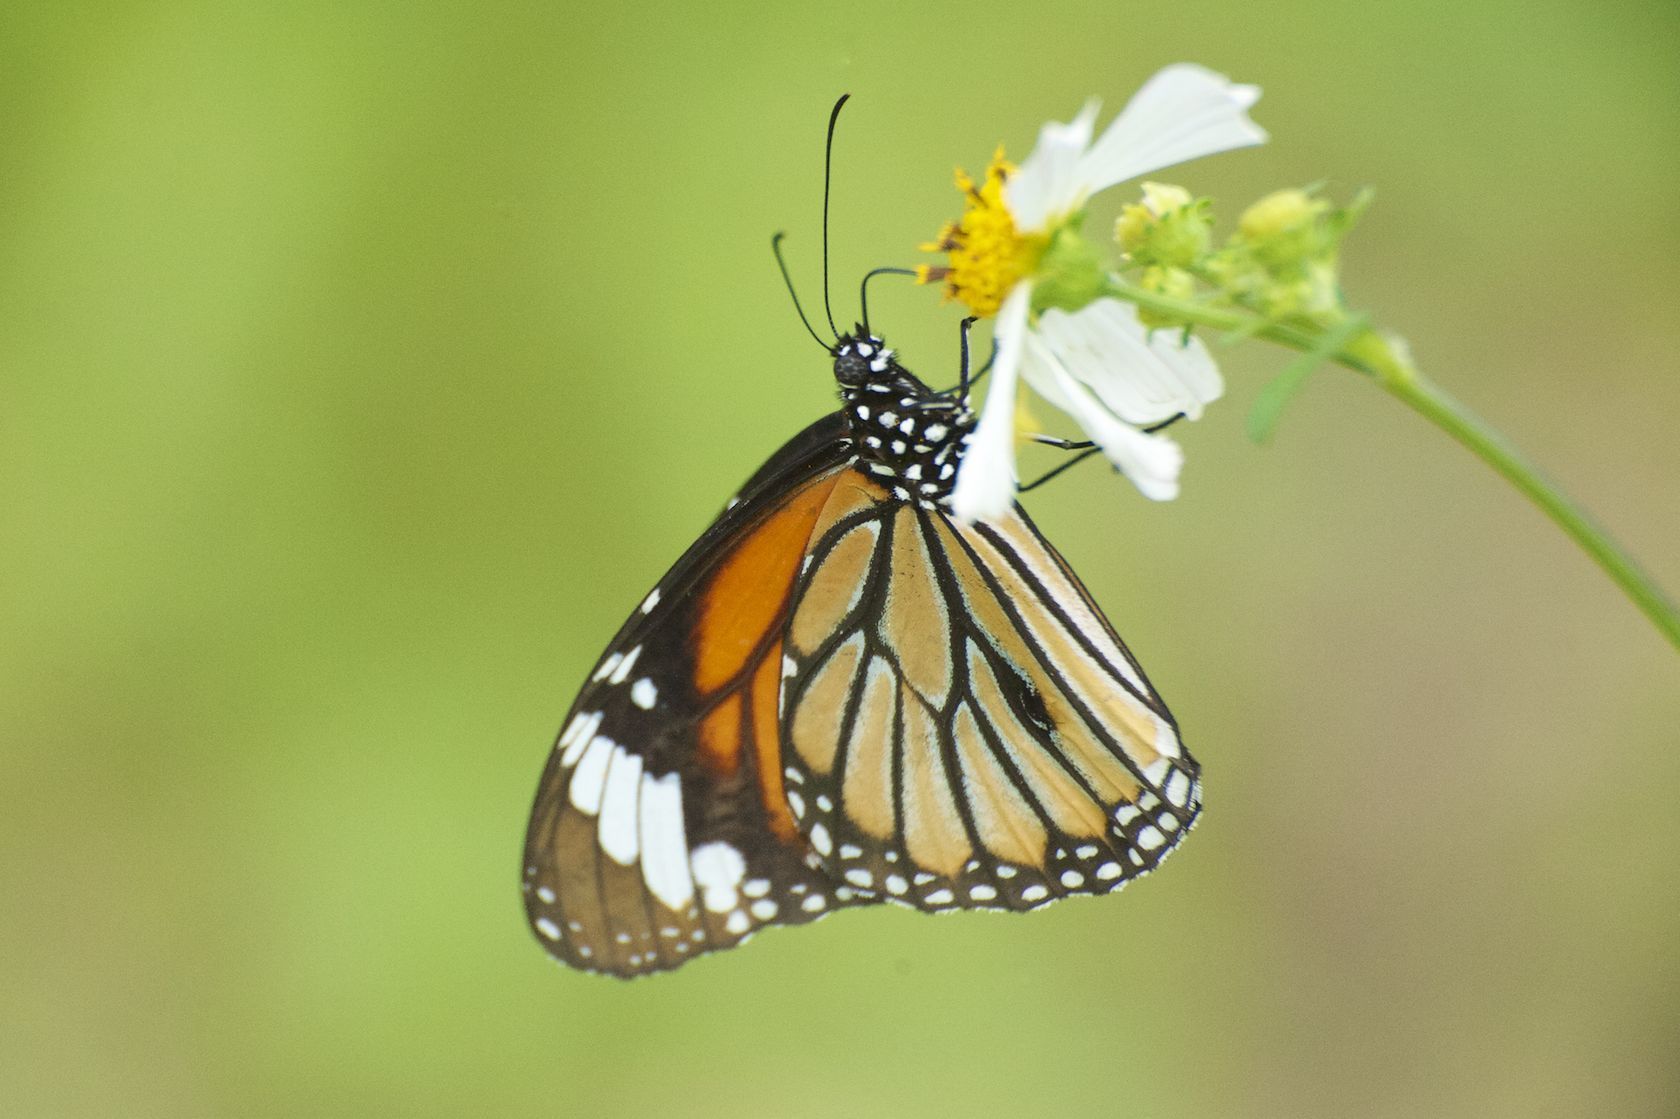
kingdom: Animalia
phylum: Arthropoda
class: Insecta
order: Lepidoptera
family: Nymphalidae
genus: Danaus
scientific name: Danaus genutia
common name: Common tiger butterfly
